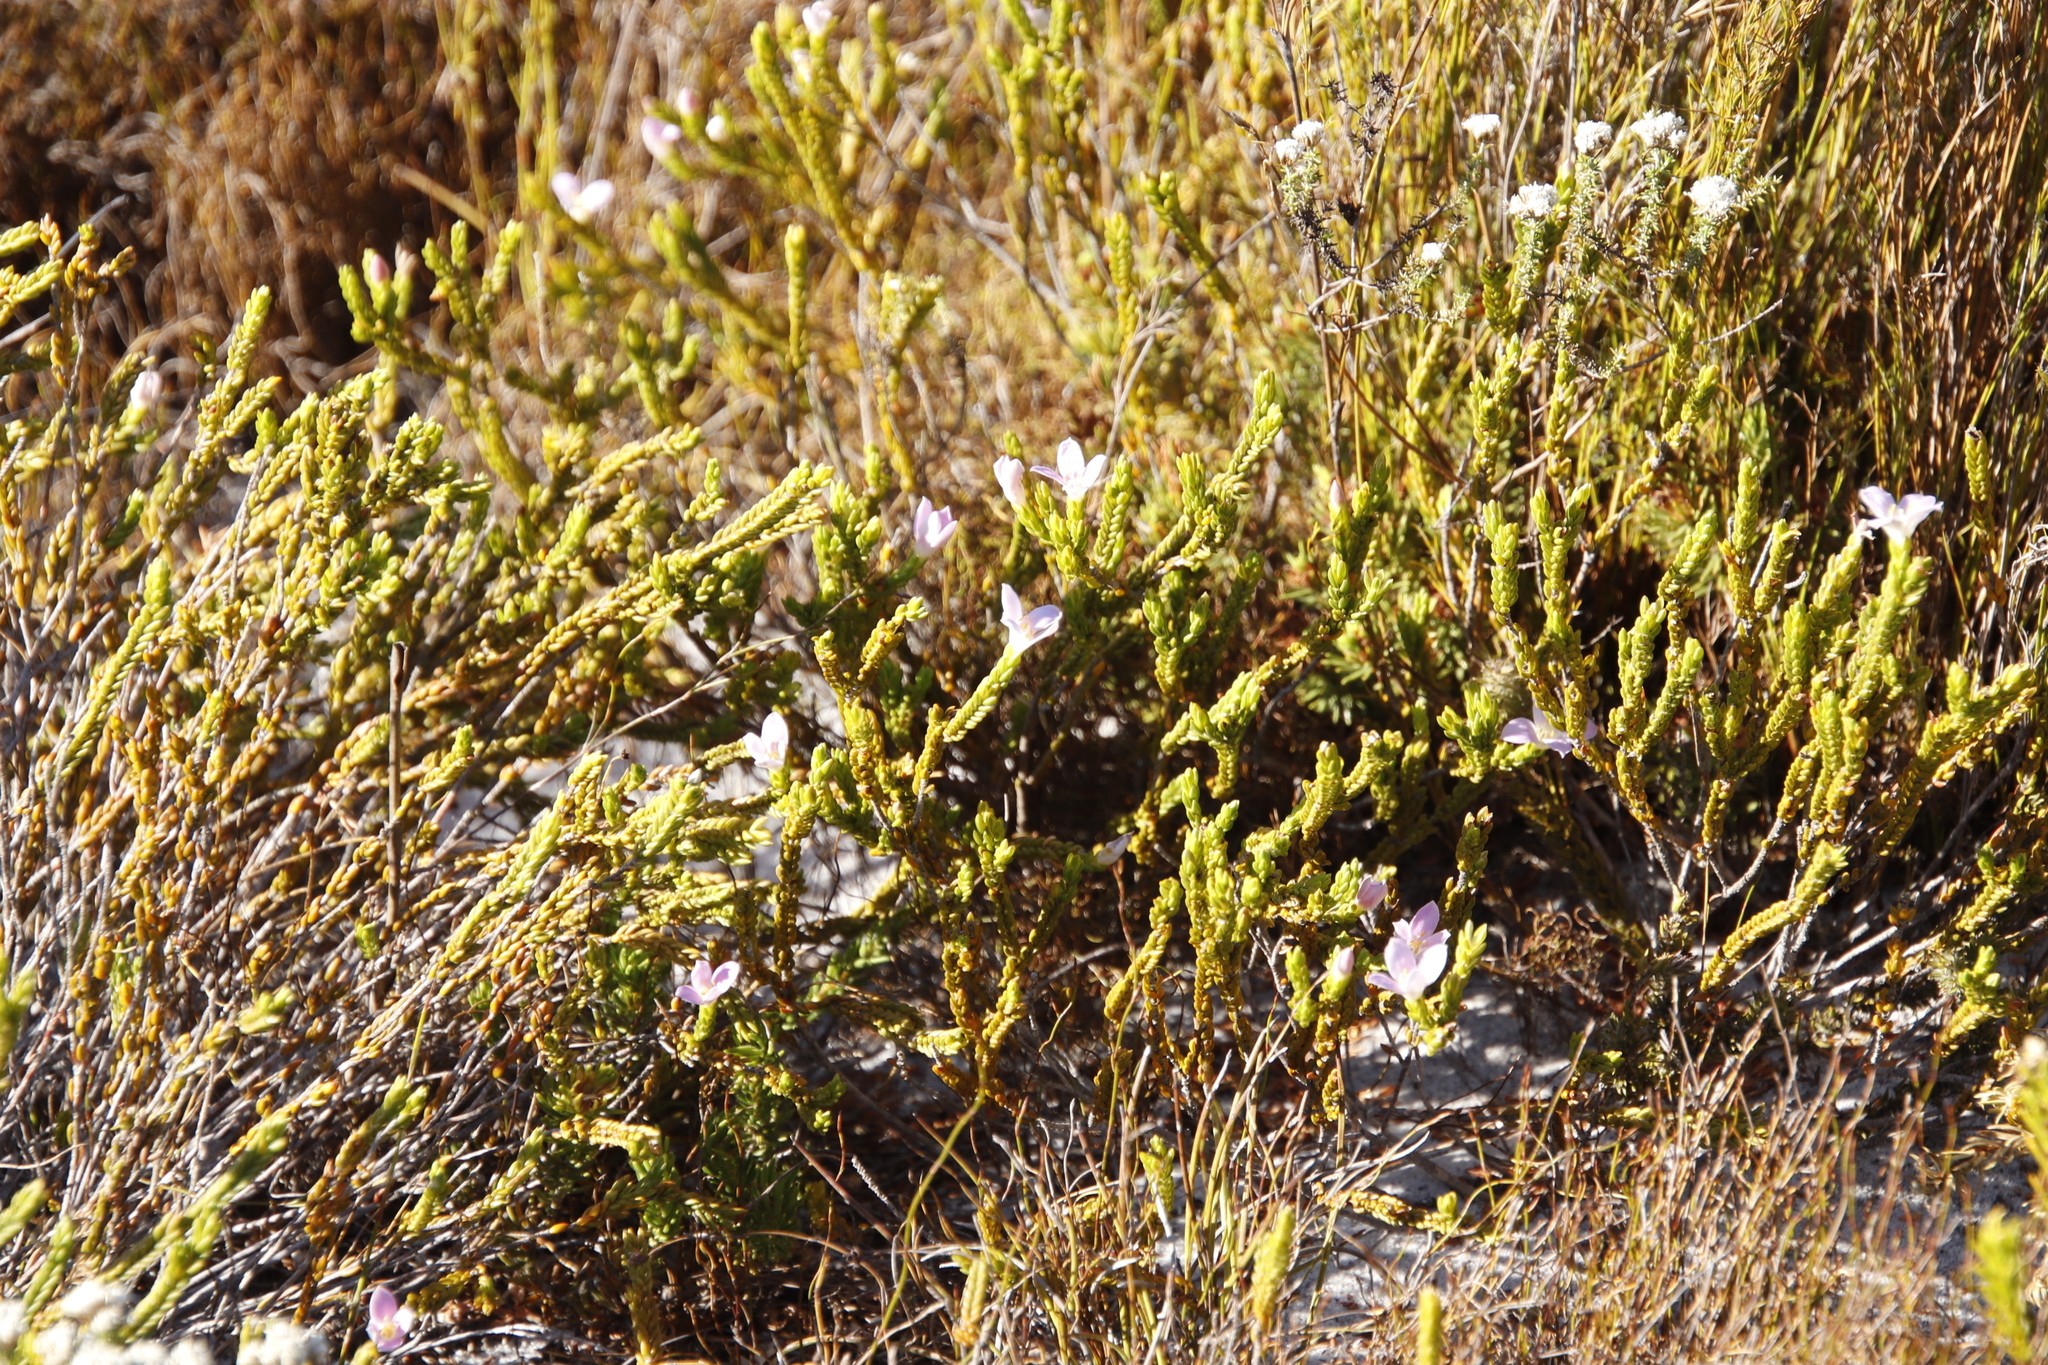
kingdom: Plantae
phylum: Tracheophyta
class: Magnoliopsida
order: Malvales
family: Thymelaeaceae
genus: Lachnaea
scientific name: Lachnaea grandiflora
